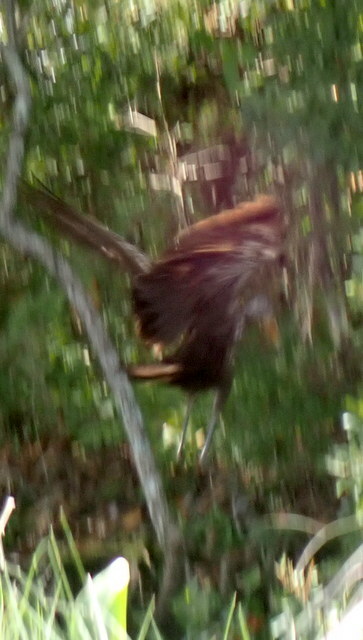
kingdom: Animalia
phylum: Chordata
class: Aves
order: Gruiformes
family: Aramidae
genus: Aramus
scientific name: Aramus guarauna
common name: Limpkin
